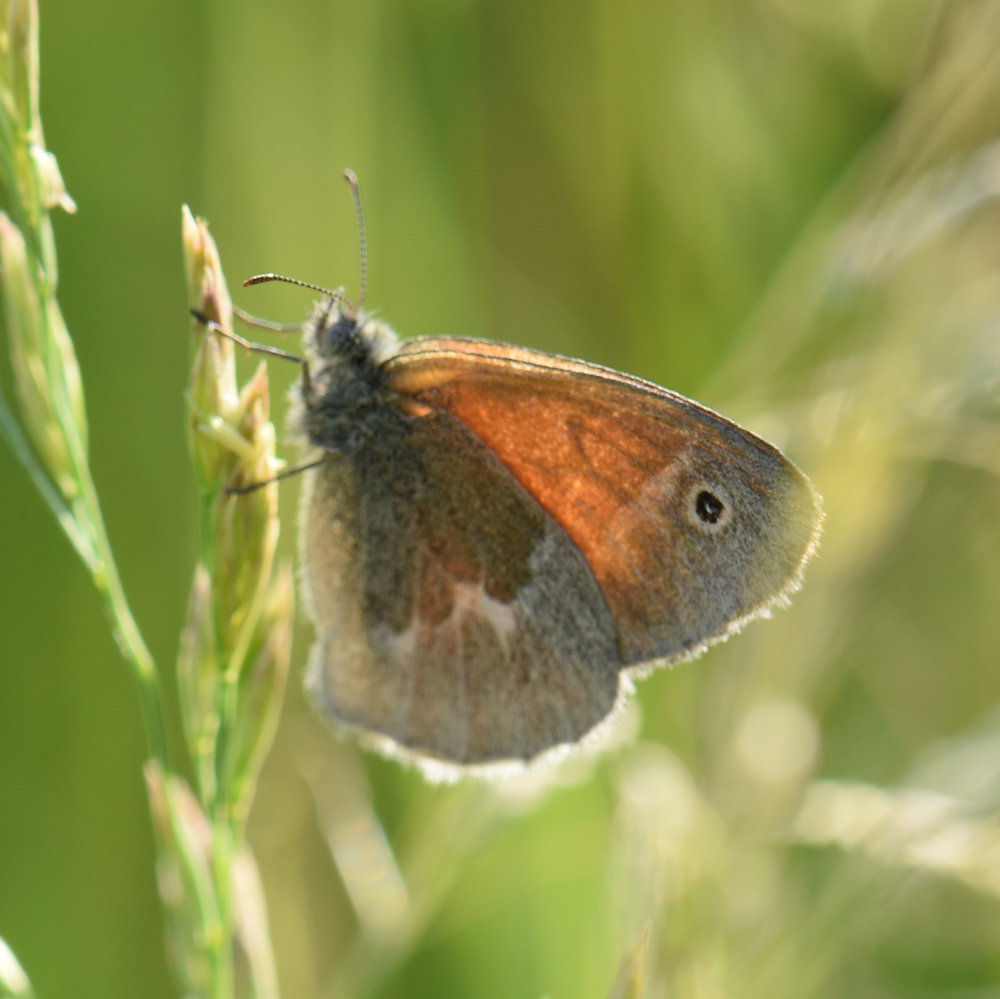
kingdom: Animalia
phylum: Arthropoda
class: Insecta
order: Lepidoptera
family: Nymphalidae
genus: Coenonympha
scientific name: Coenonympha california
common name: Common ringlet
